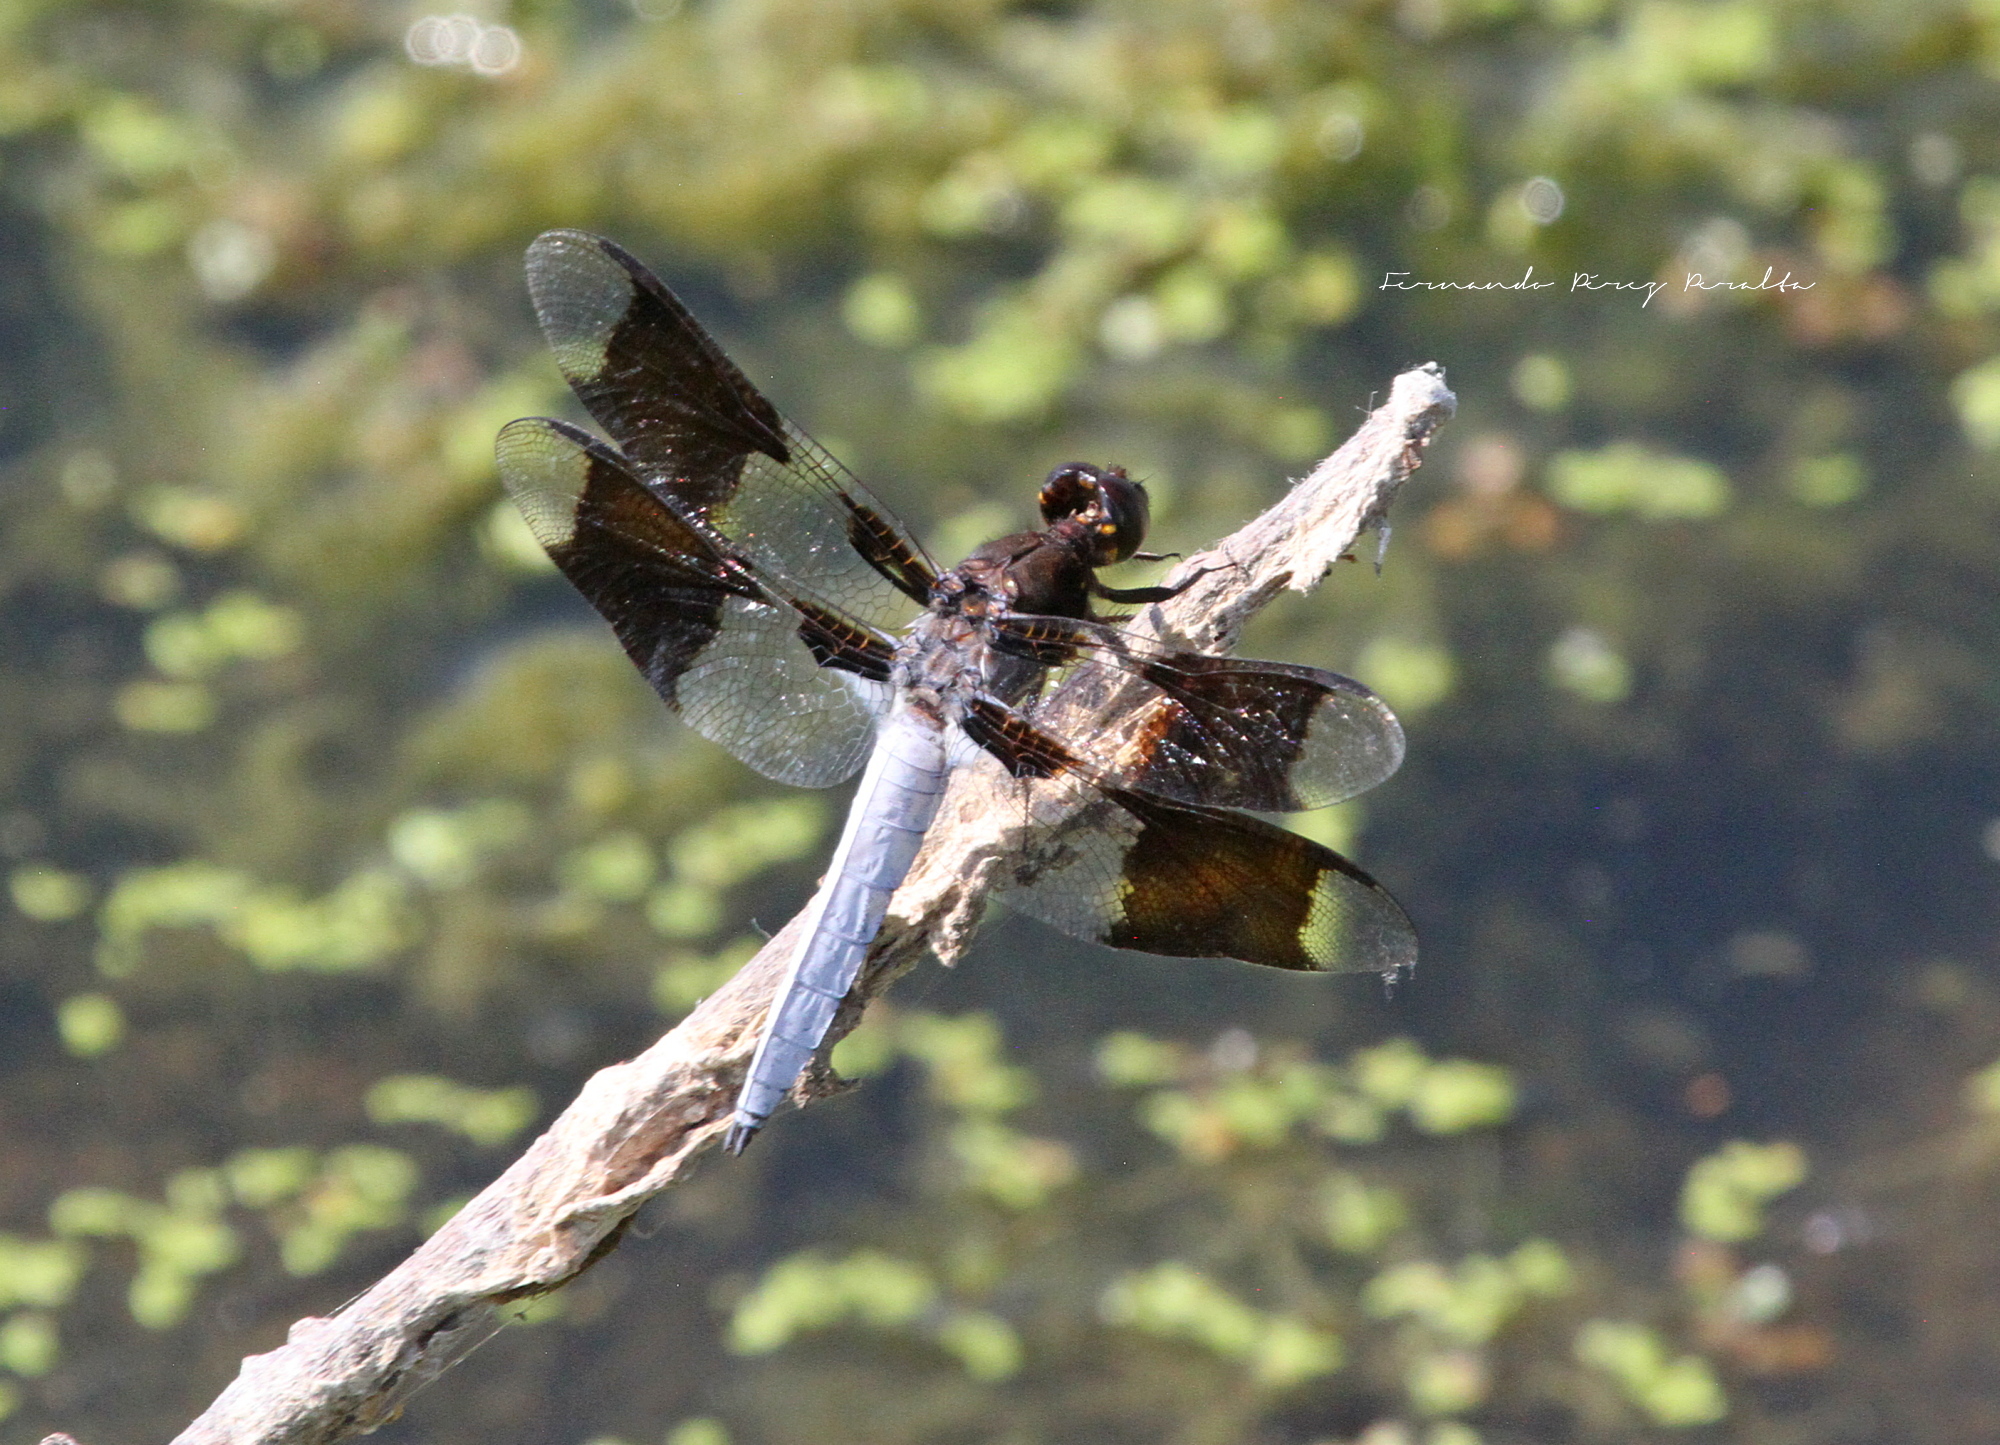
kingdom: Animalia
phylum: Arthropoda
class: Insecta
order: Odonata
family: Libellulidae
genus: Plathemis
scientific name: Plathemis lydia
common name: Common whitetail
